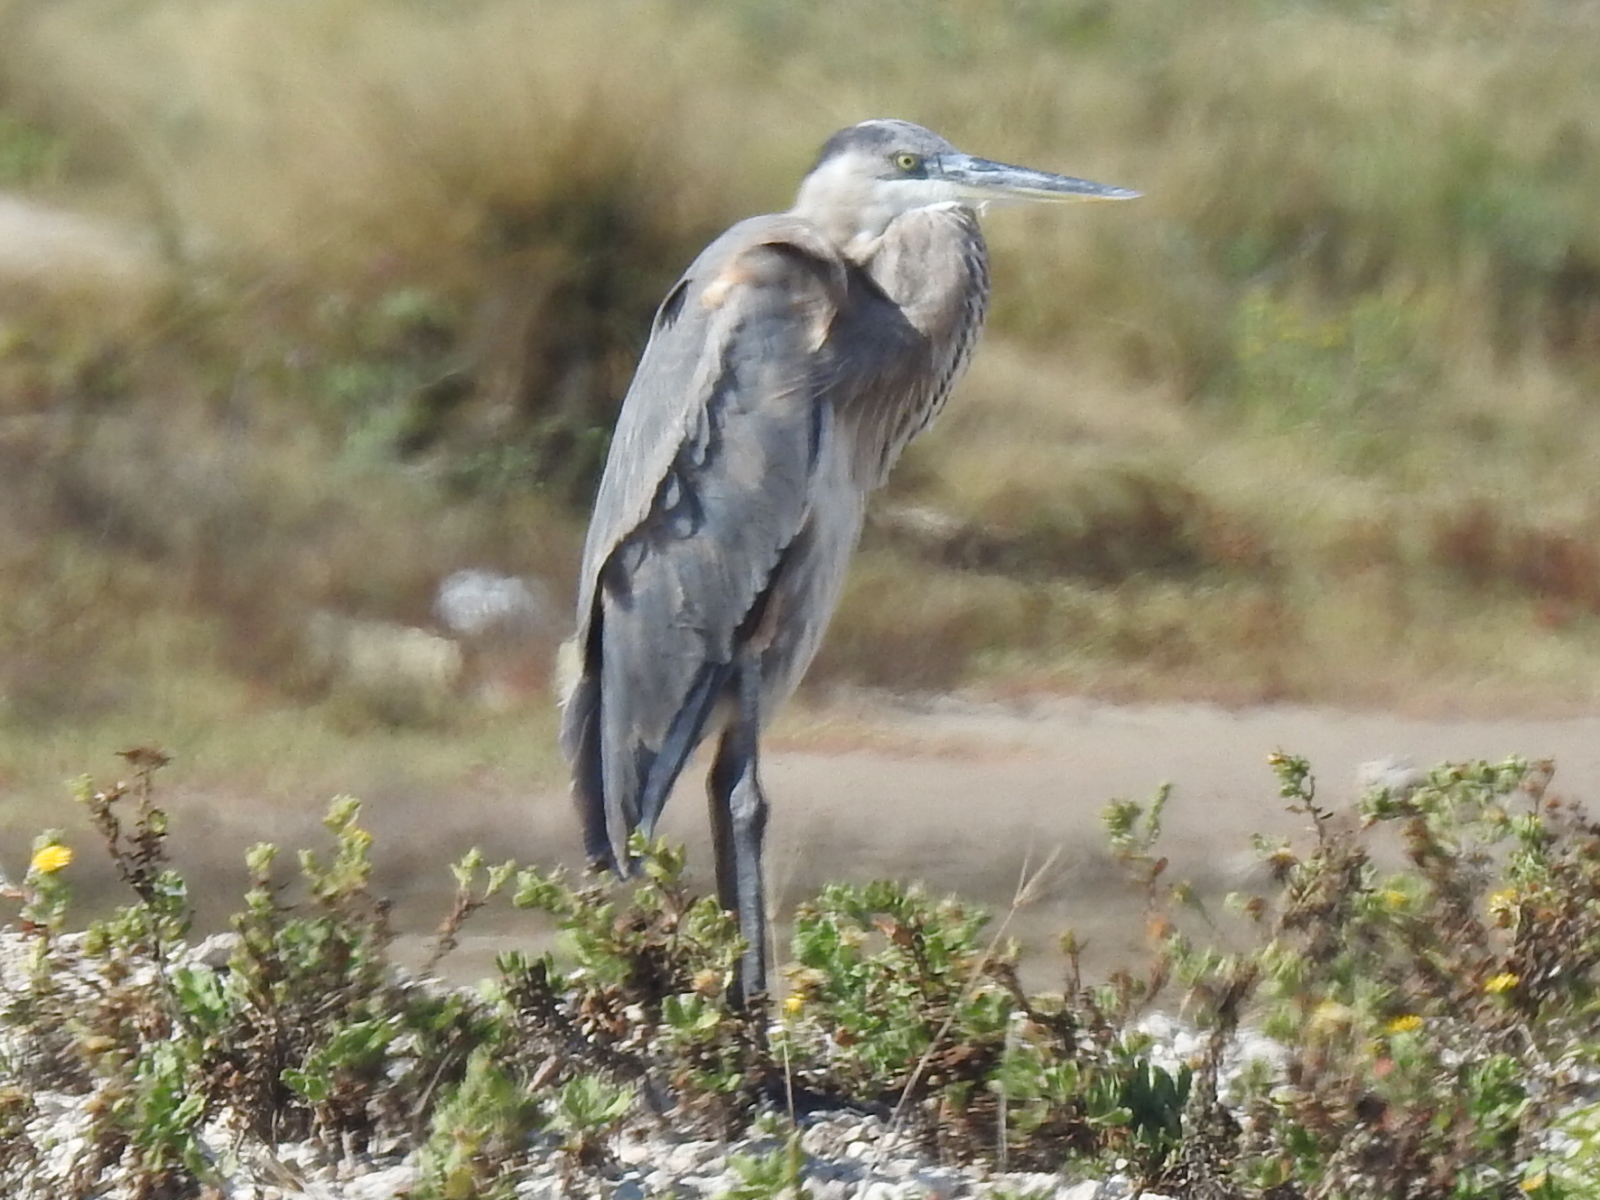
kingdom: Animalia
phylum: Chordata
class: Aves
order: Pelecaniformes
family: Ardeidae
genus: Ardea
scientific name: Ardea herodias
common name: Great blue heron
